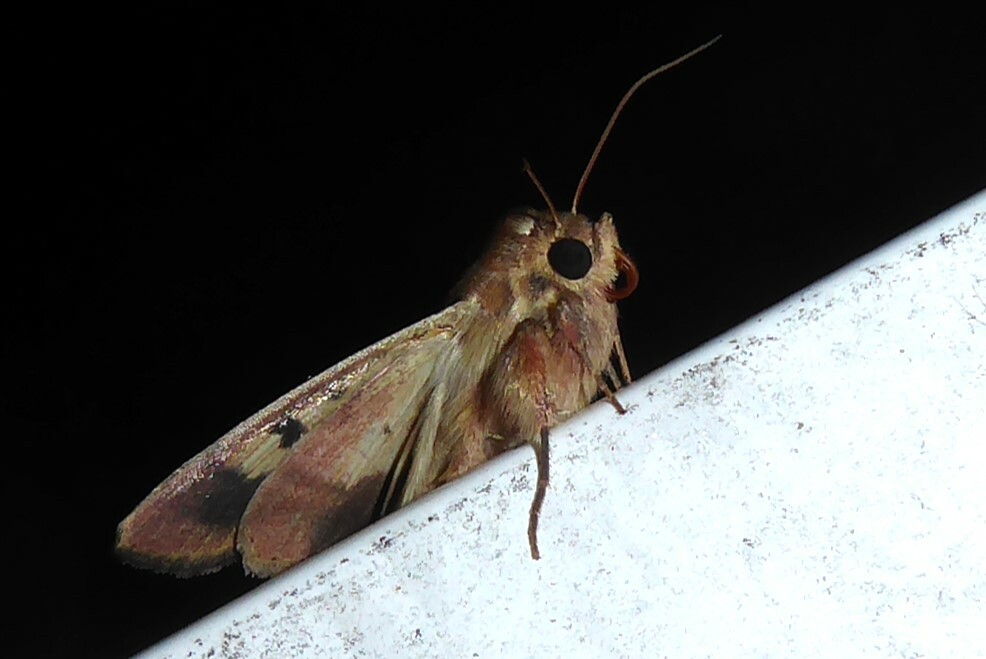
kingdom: Animalia
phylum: Arthropoda
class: Insecta
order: Lepidoptera
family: Noctuidae
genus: Helicoverpa
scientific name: Helicoverpa punctigera
